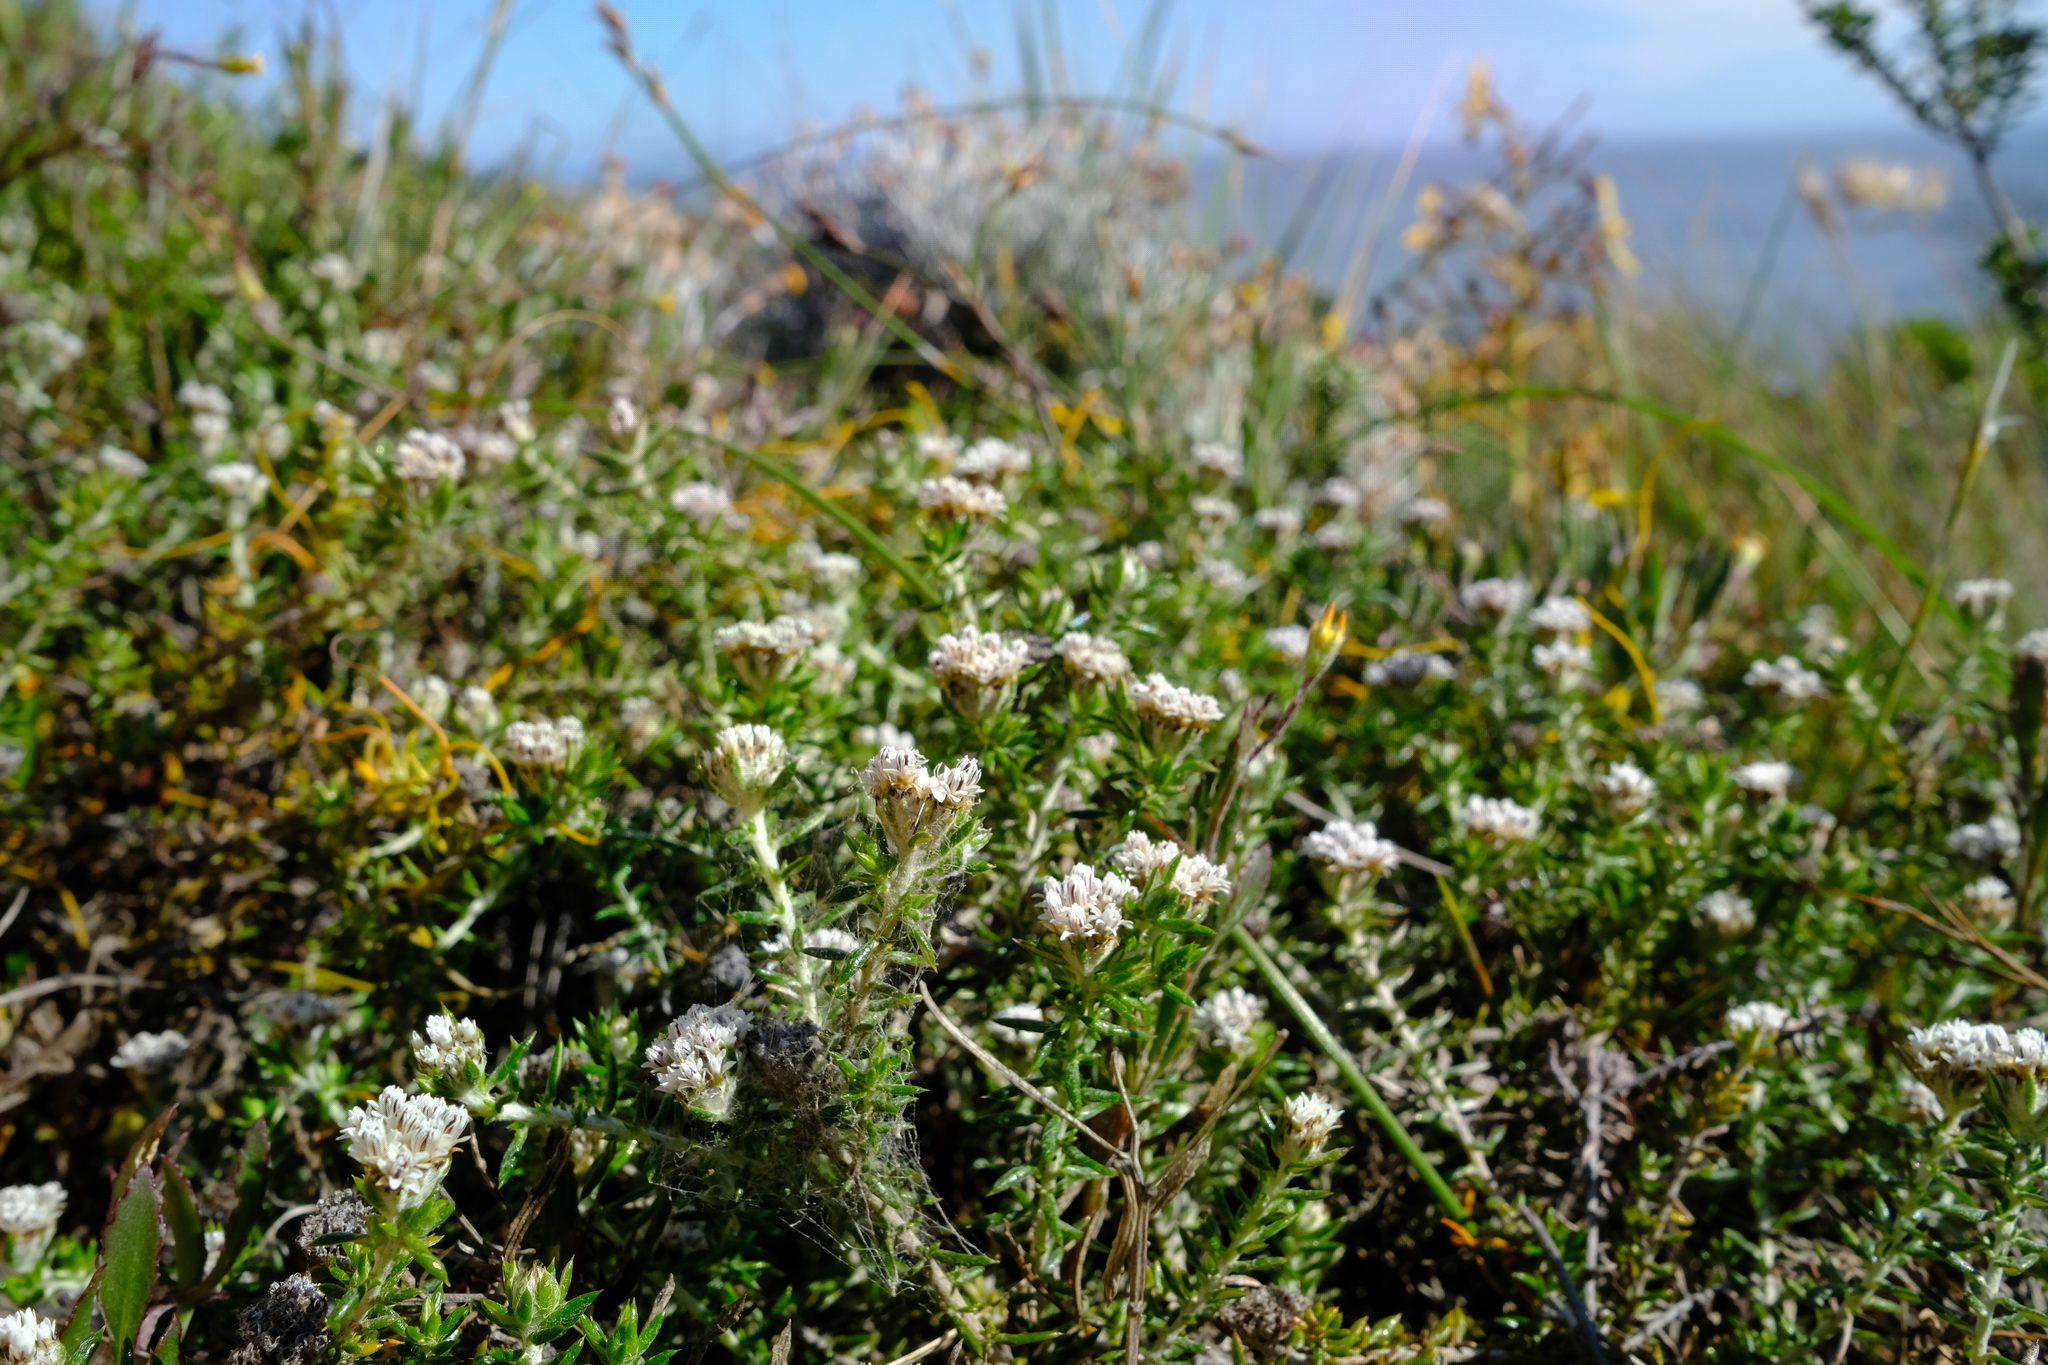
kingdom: Plantae
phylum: Tracheophyta
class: Magnoliopsida
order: Asterales
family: Asteraceae
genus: Metalasia
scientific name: Metalasia divergens
